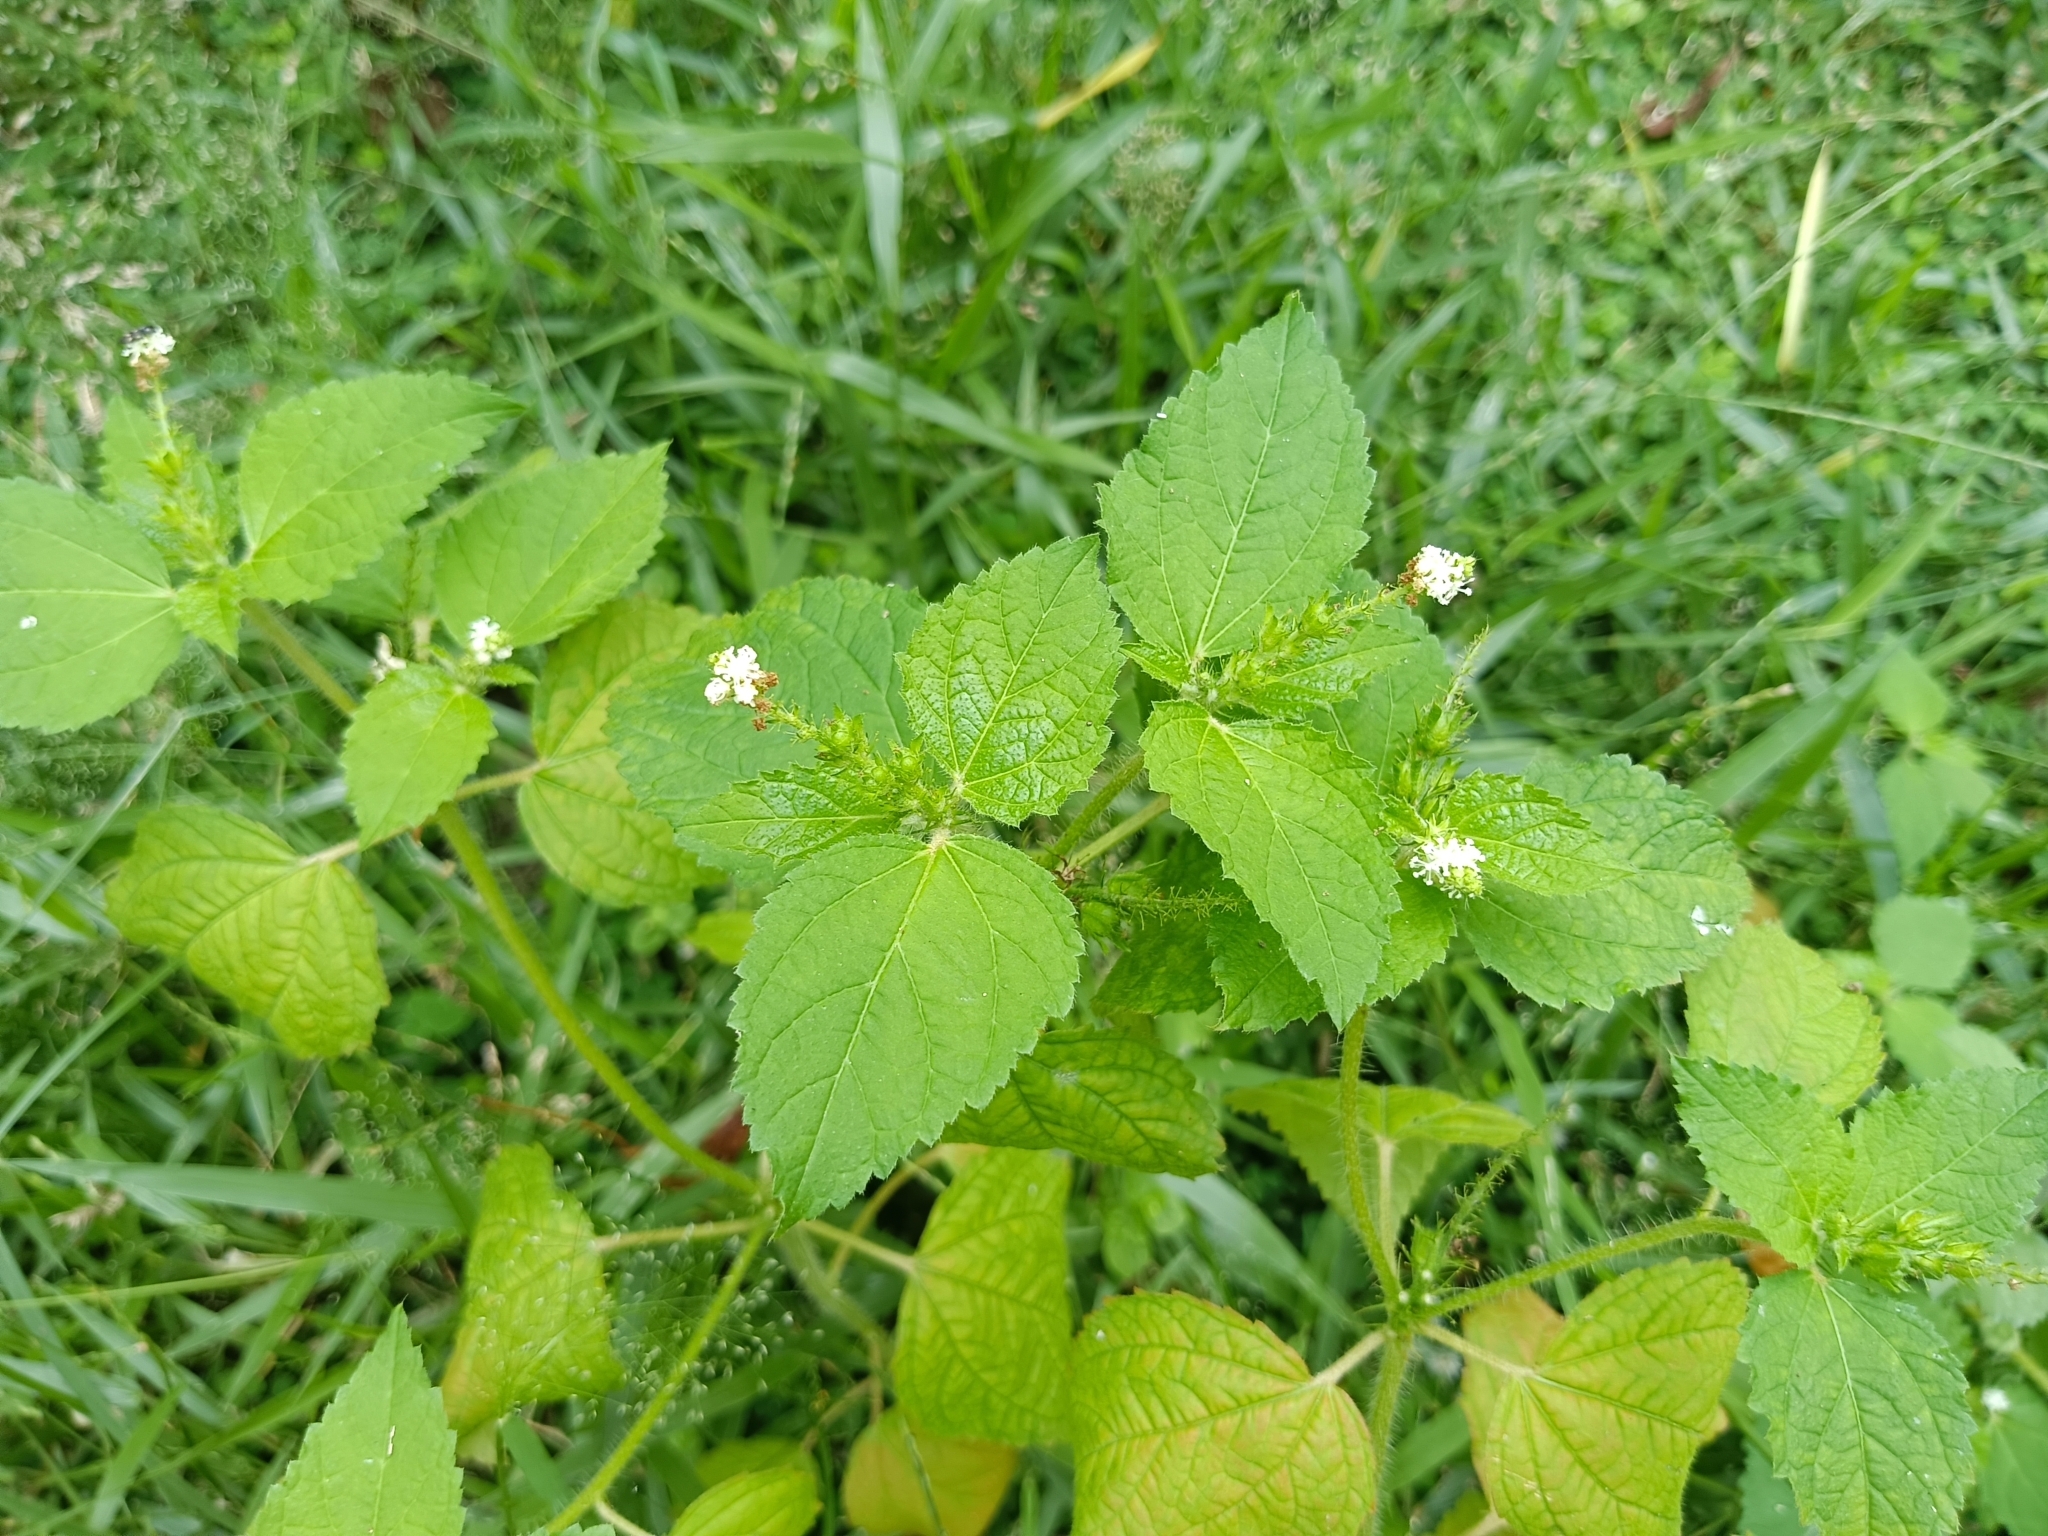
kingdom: Plantae
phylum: Tracheophyta
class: Magnoliopsida
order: Malpighiales
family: Euphorbiaceae
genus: Croton
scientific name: Croton hirtus
